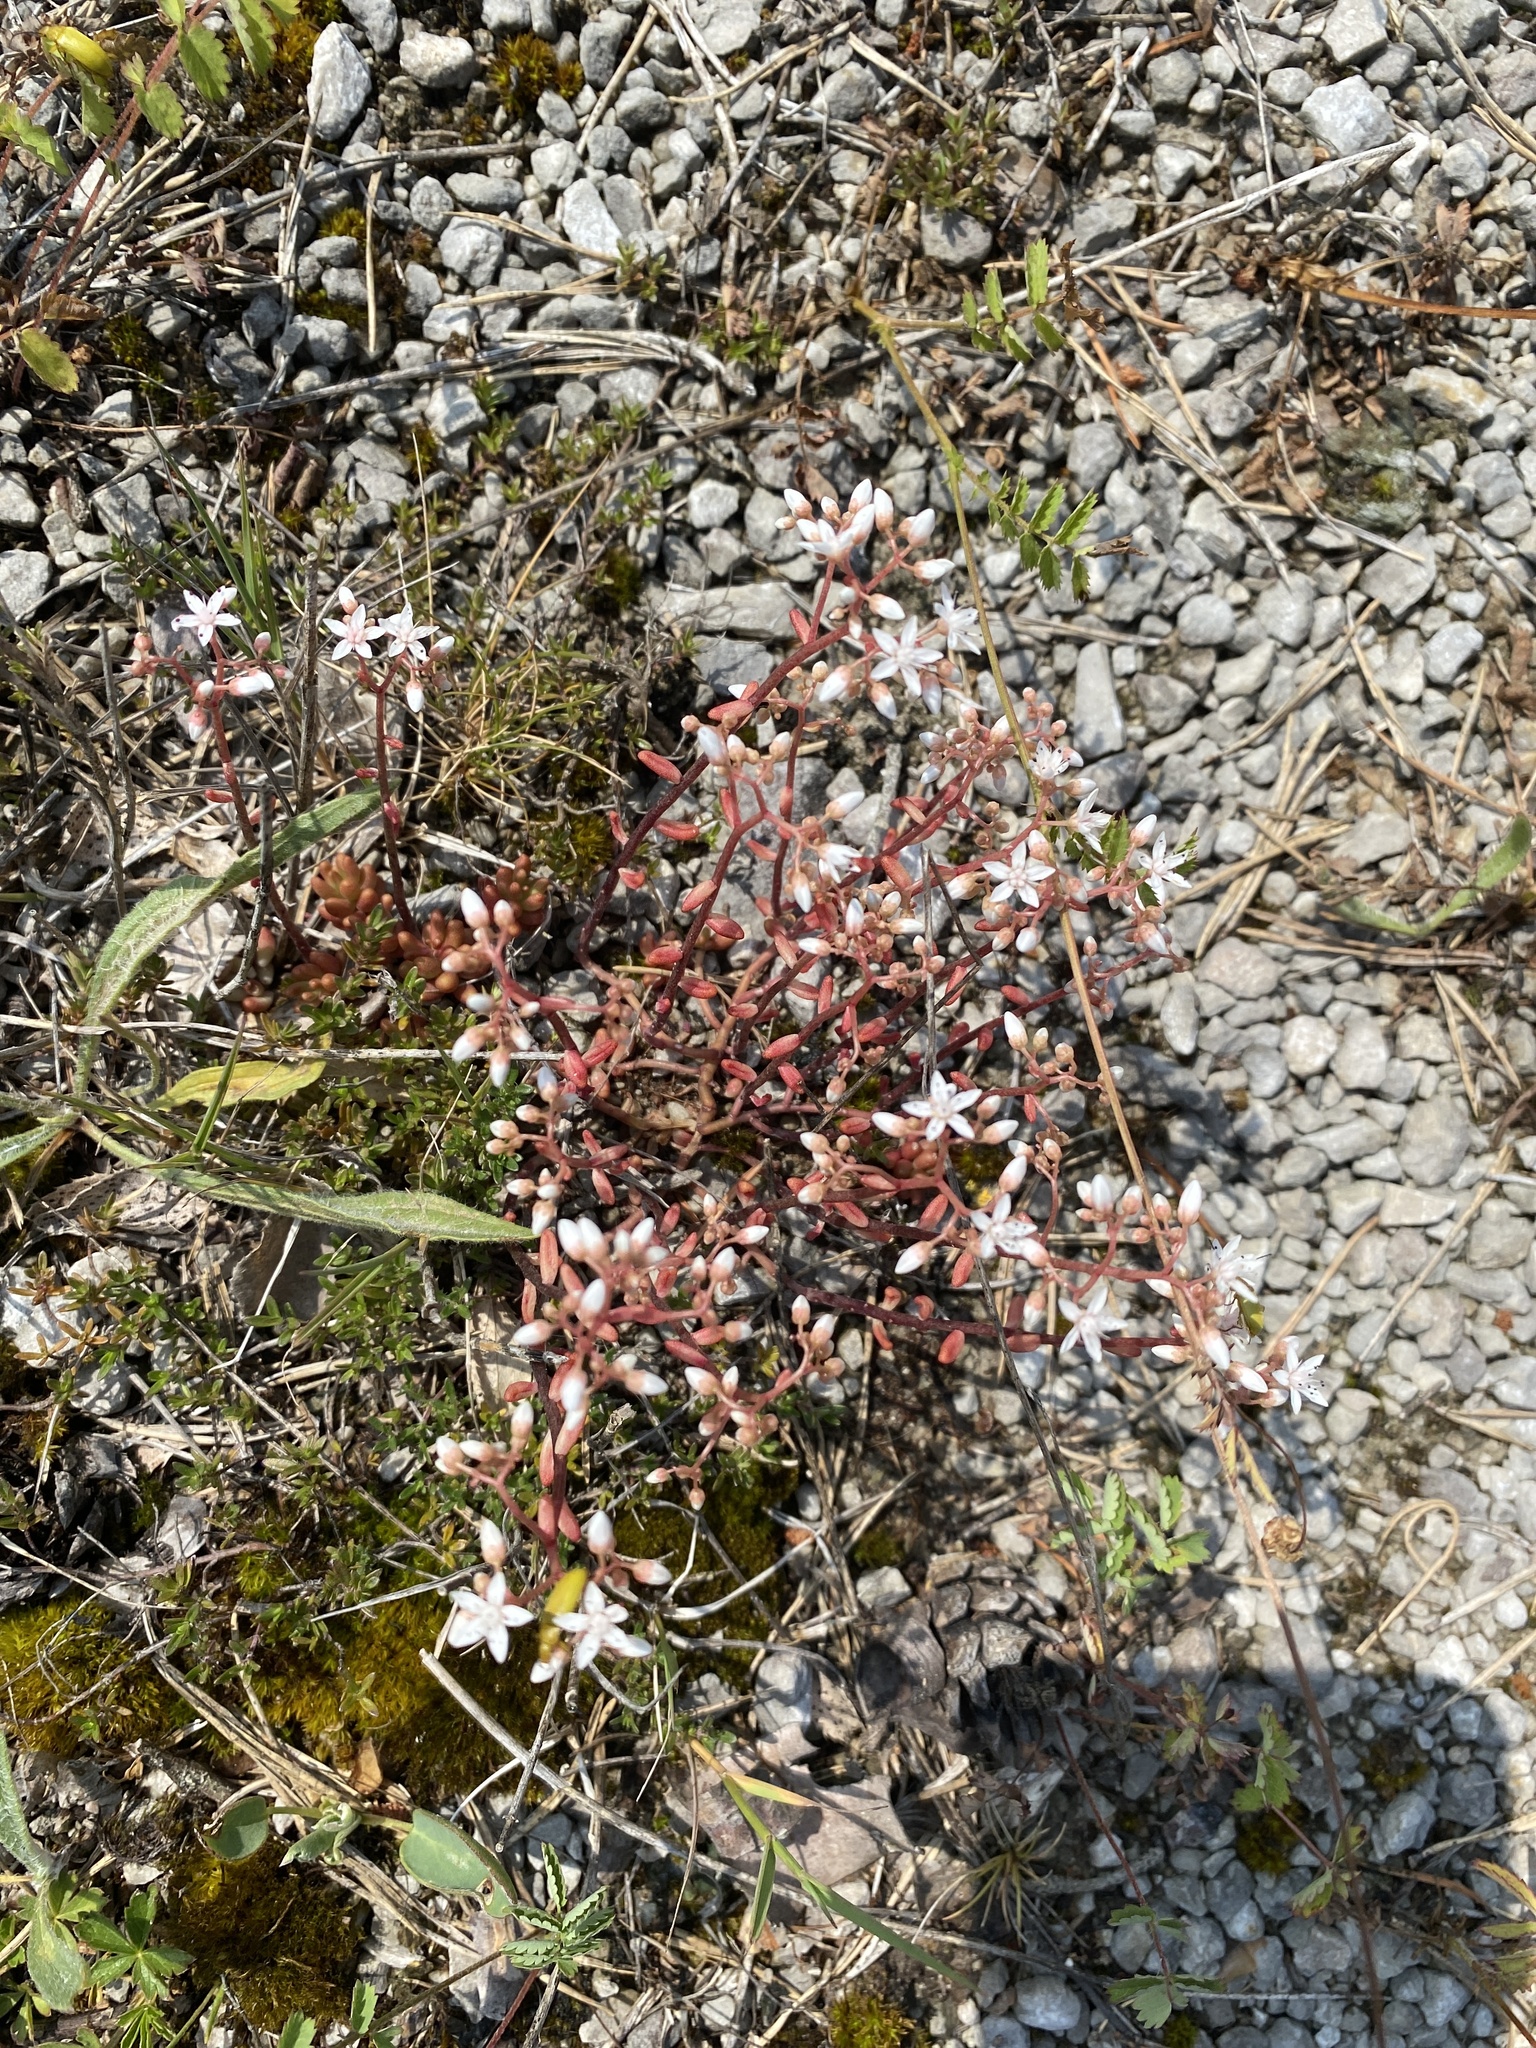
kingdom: Plantae
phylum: Tracheophyta
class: Magnoliopsida
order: Saxifragales
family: Crassulaceae
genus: Sedum
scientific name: Sedum album
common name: White stonecrop
